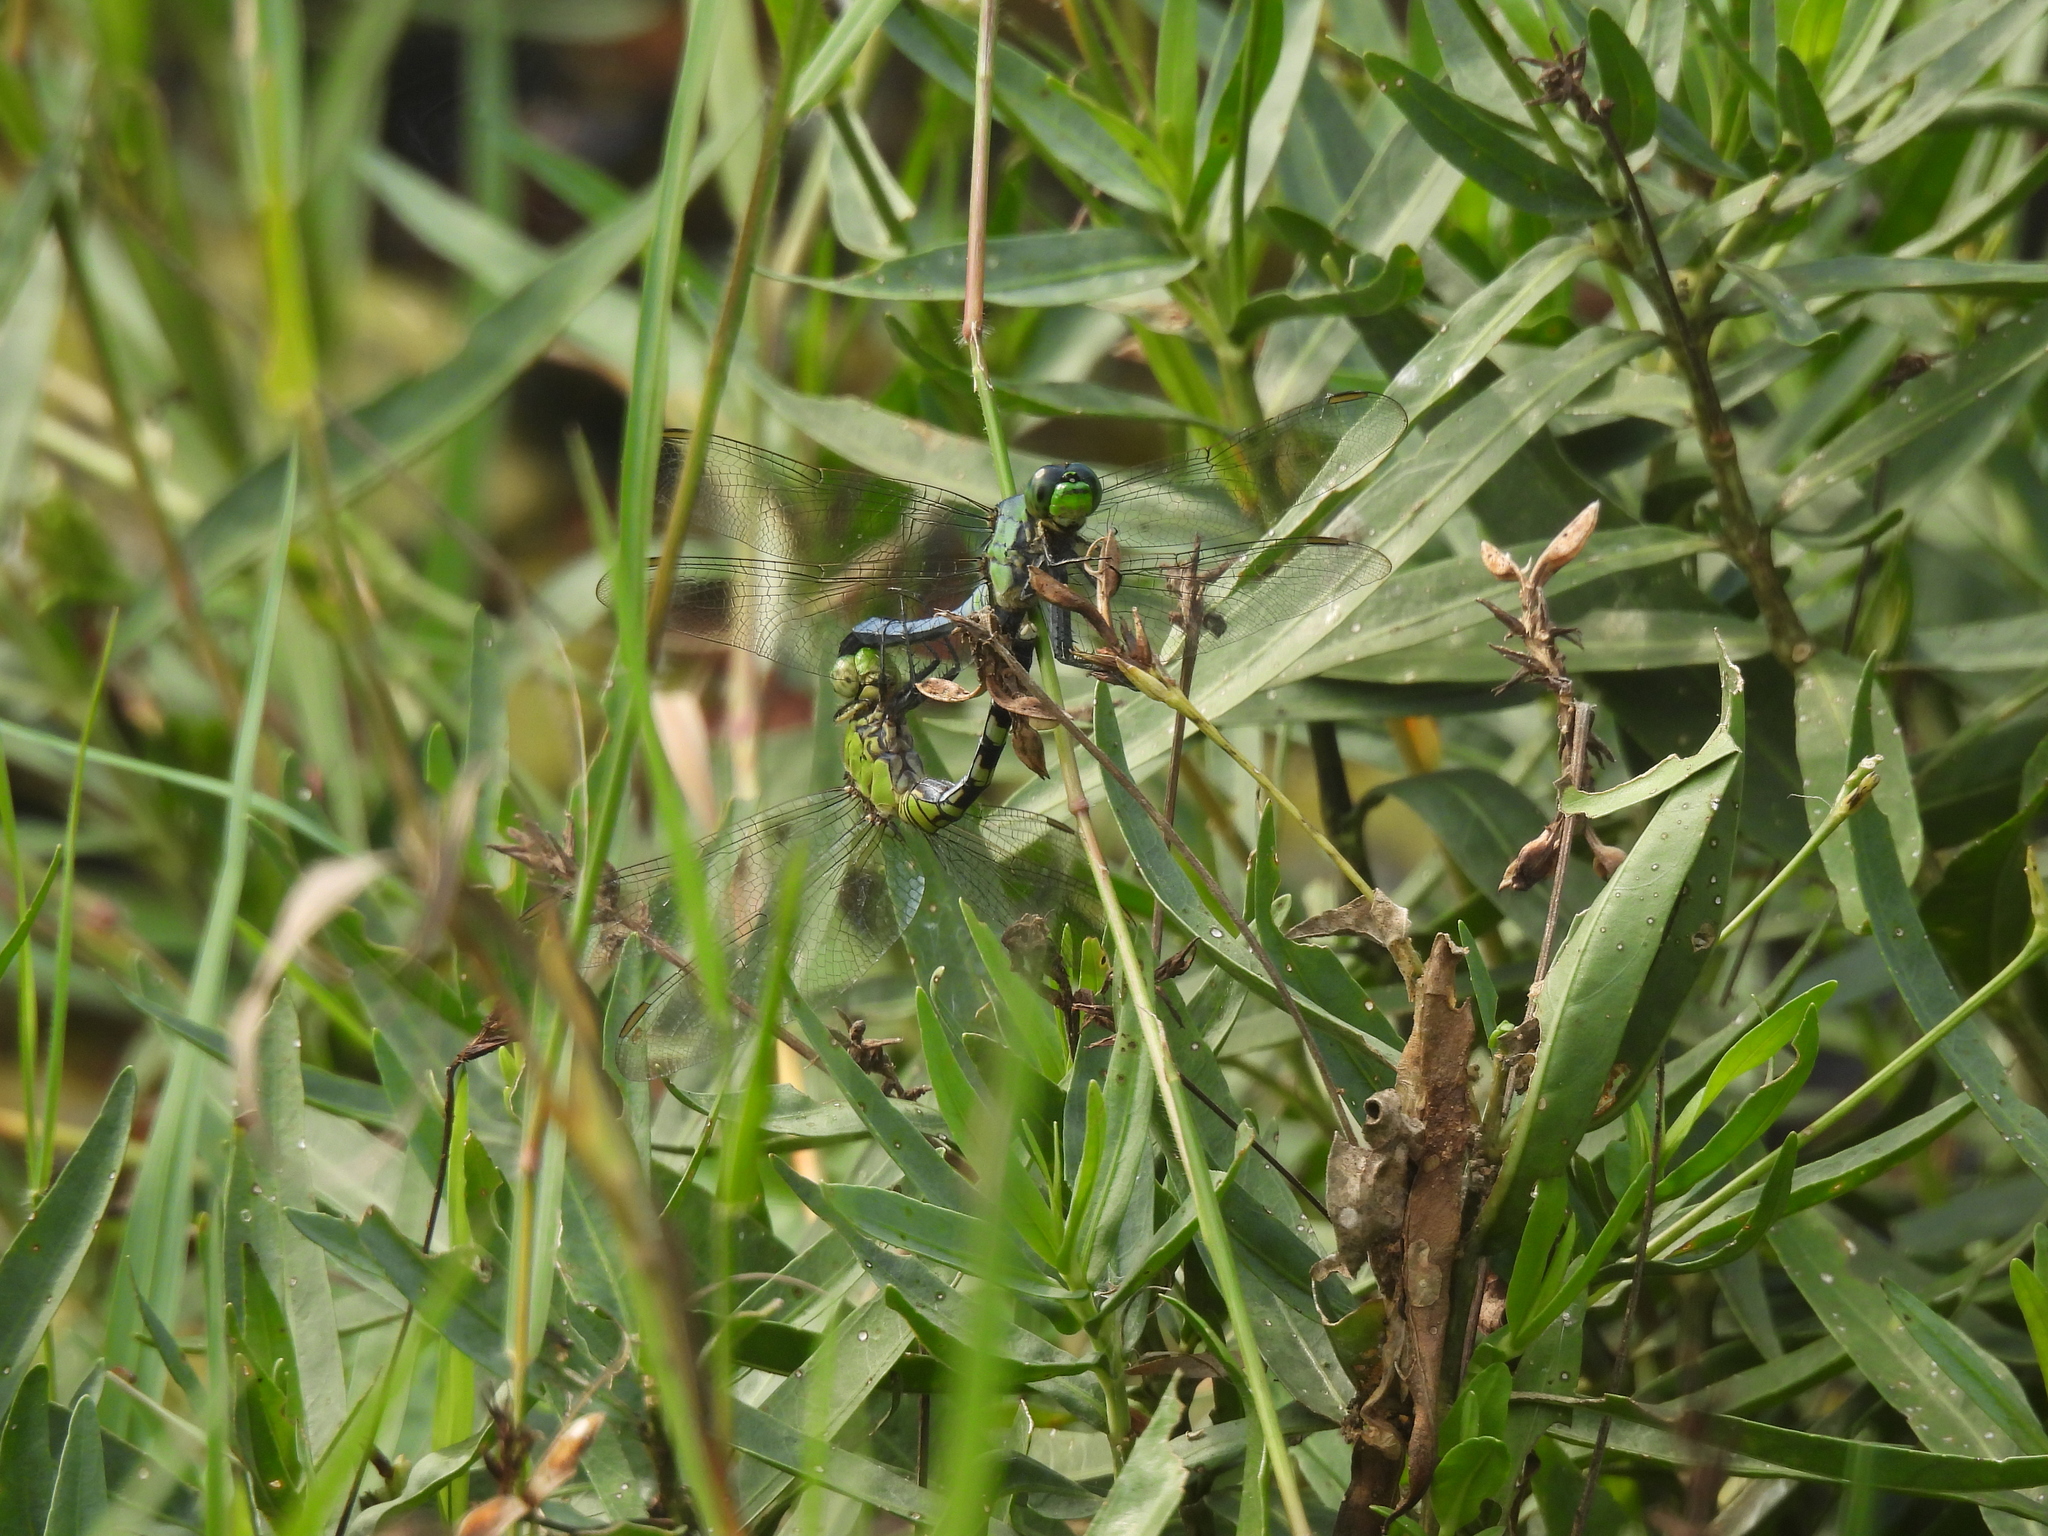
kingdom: Animalia
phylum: Arthropoda
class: Insecta
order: Odonata
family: Libellulidae
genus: Erythemis
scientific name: Erythemis simplicicollis
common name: Eastern pondhawk
